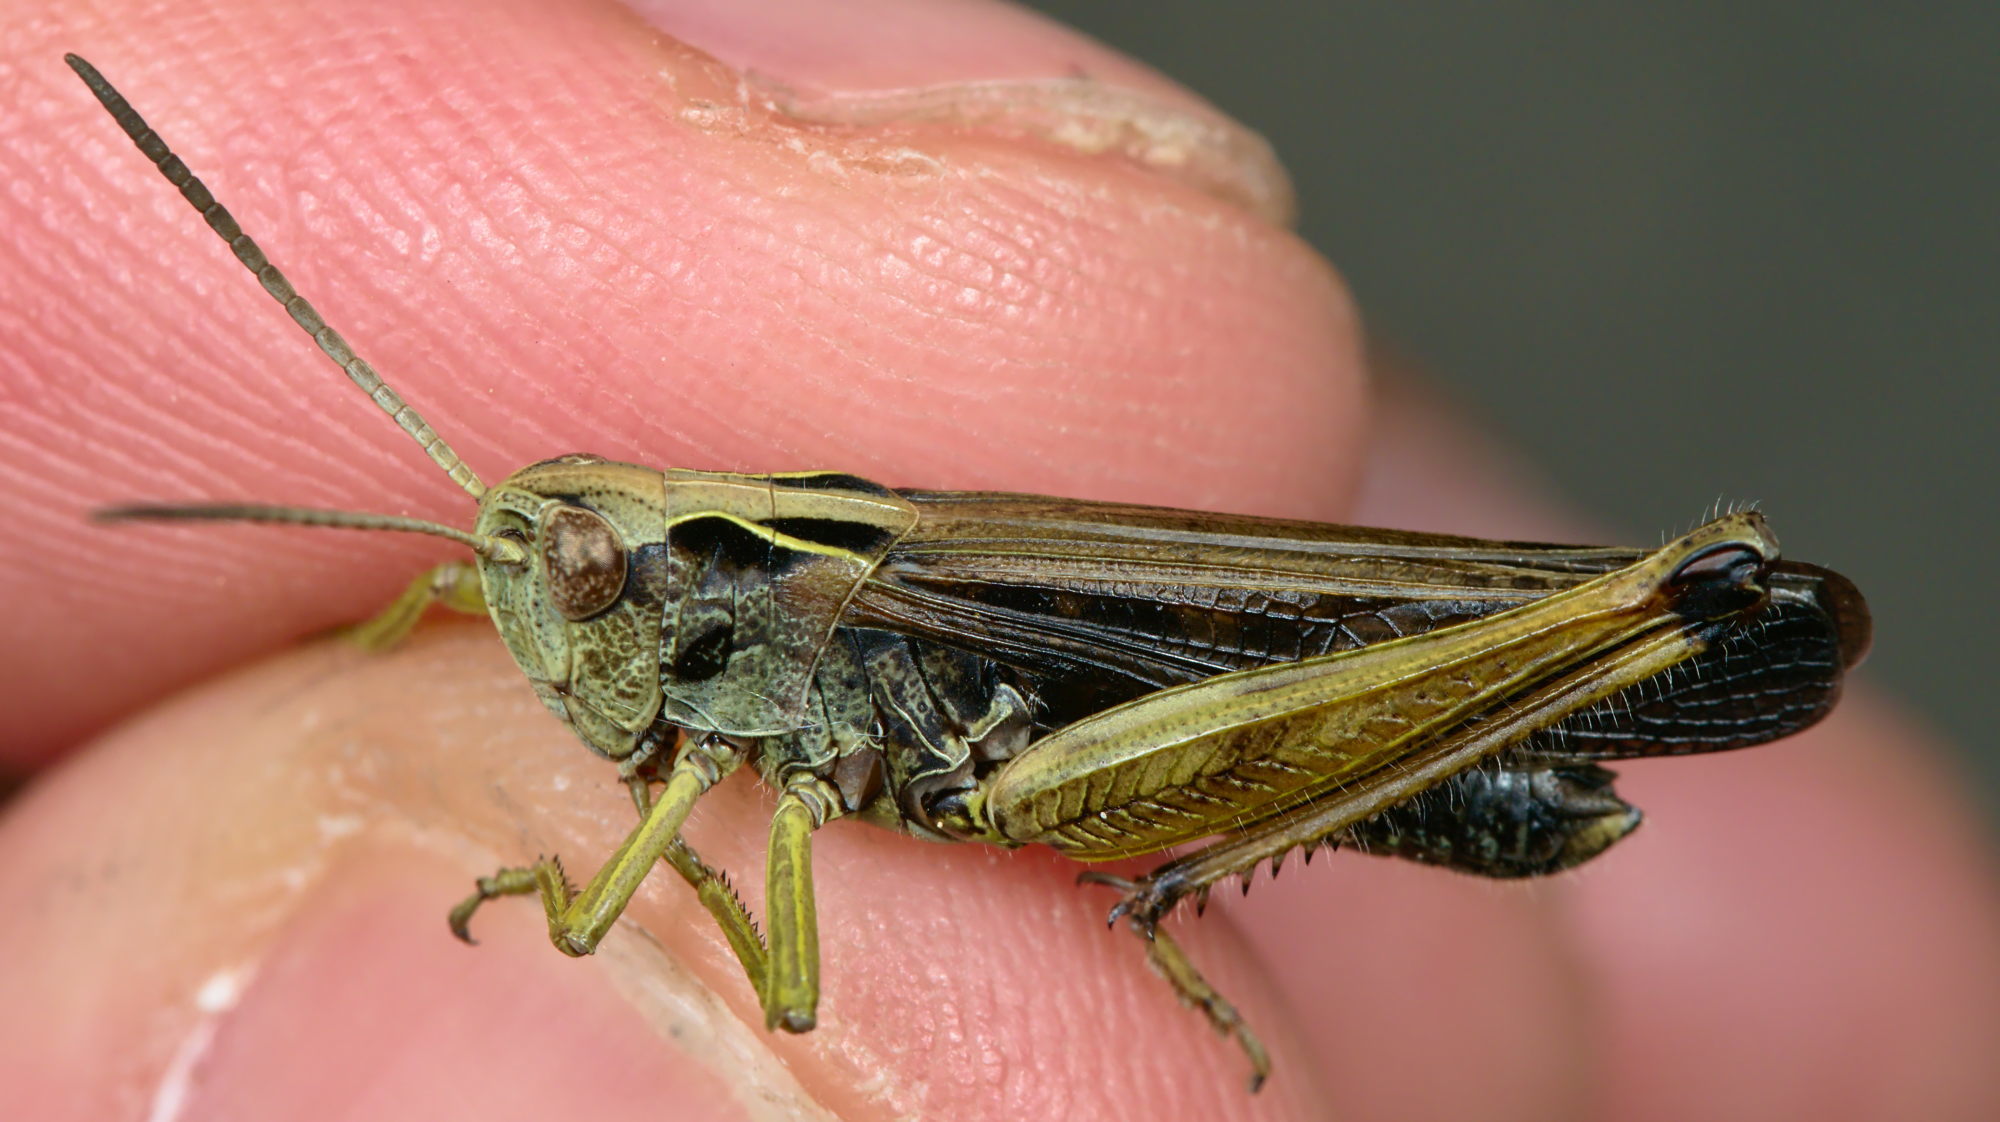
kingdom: Animalia
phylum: Arthropoda
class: Insecta
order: Orthoptera
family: Acrididae
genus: Omocestus
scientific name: Omocestus viridulus
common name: Common green grasshopper
